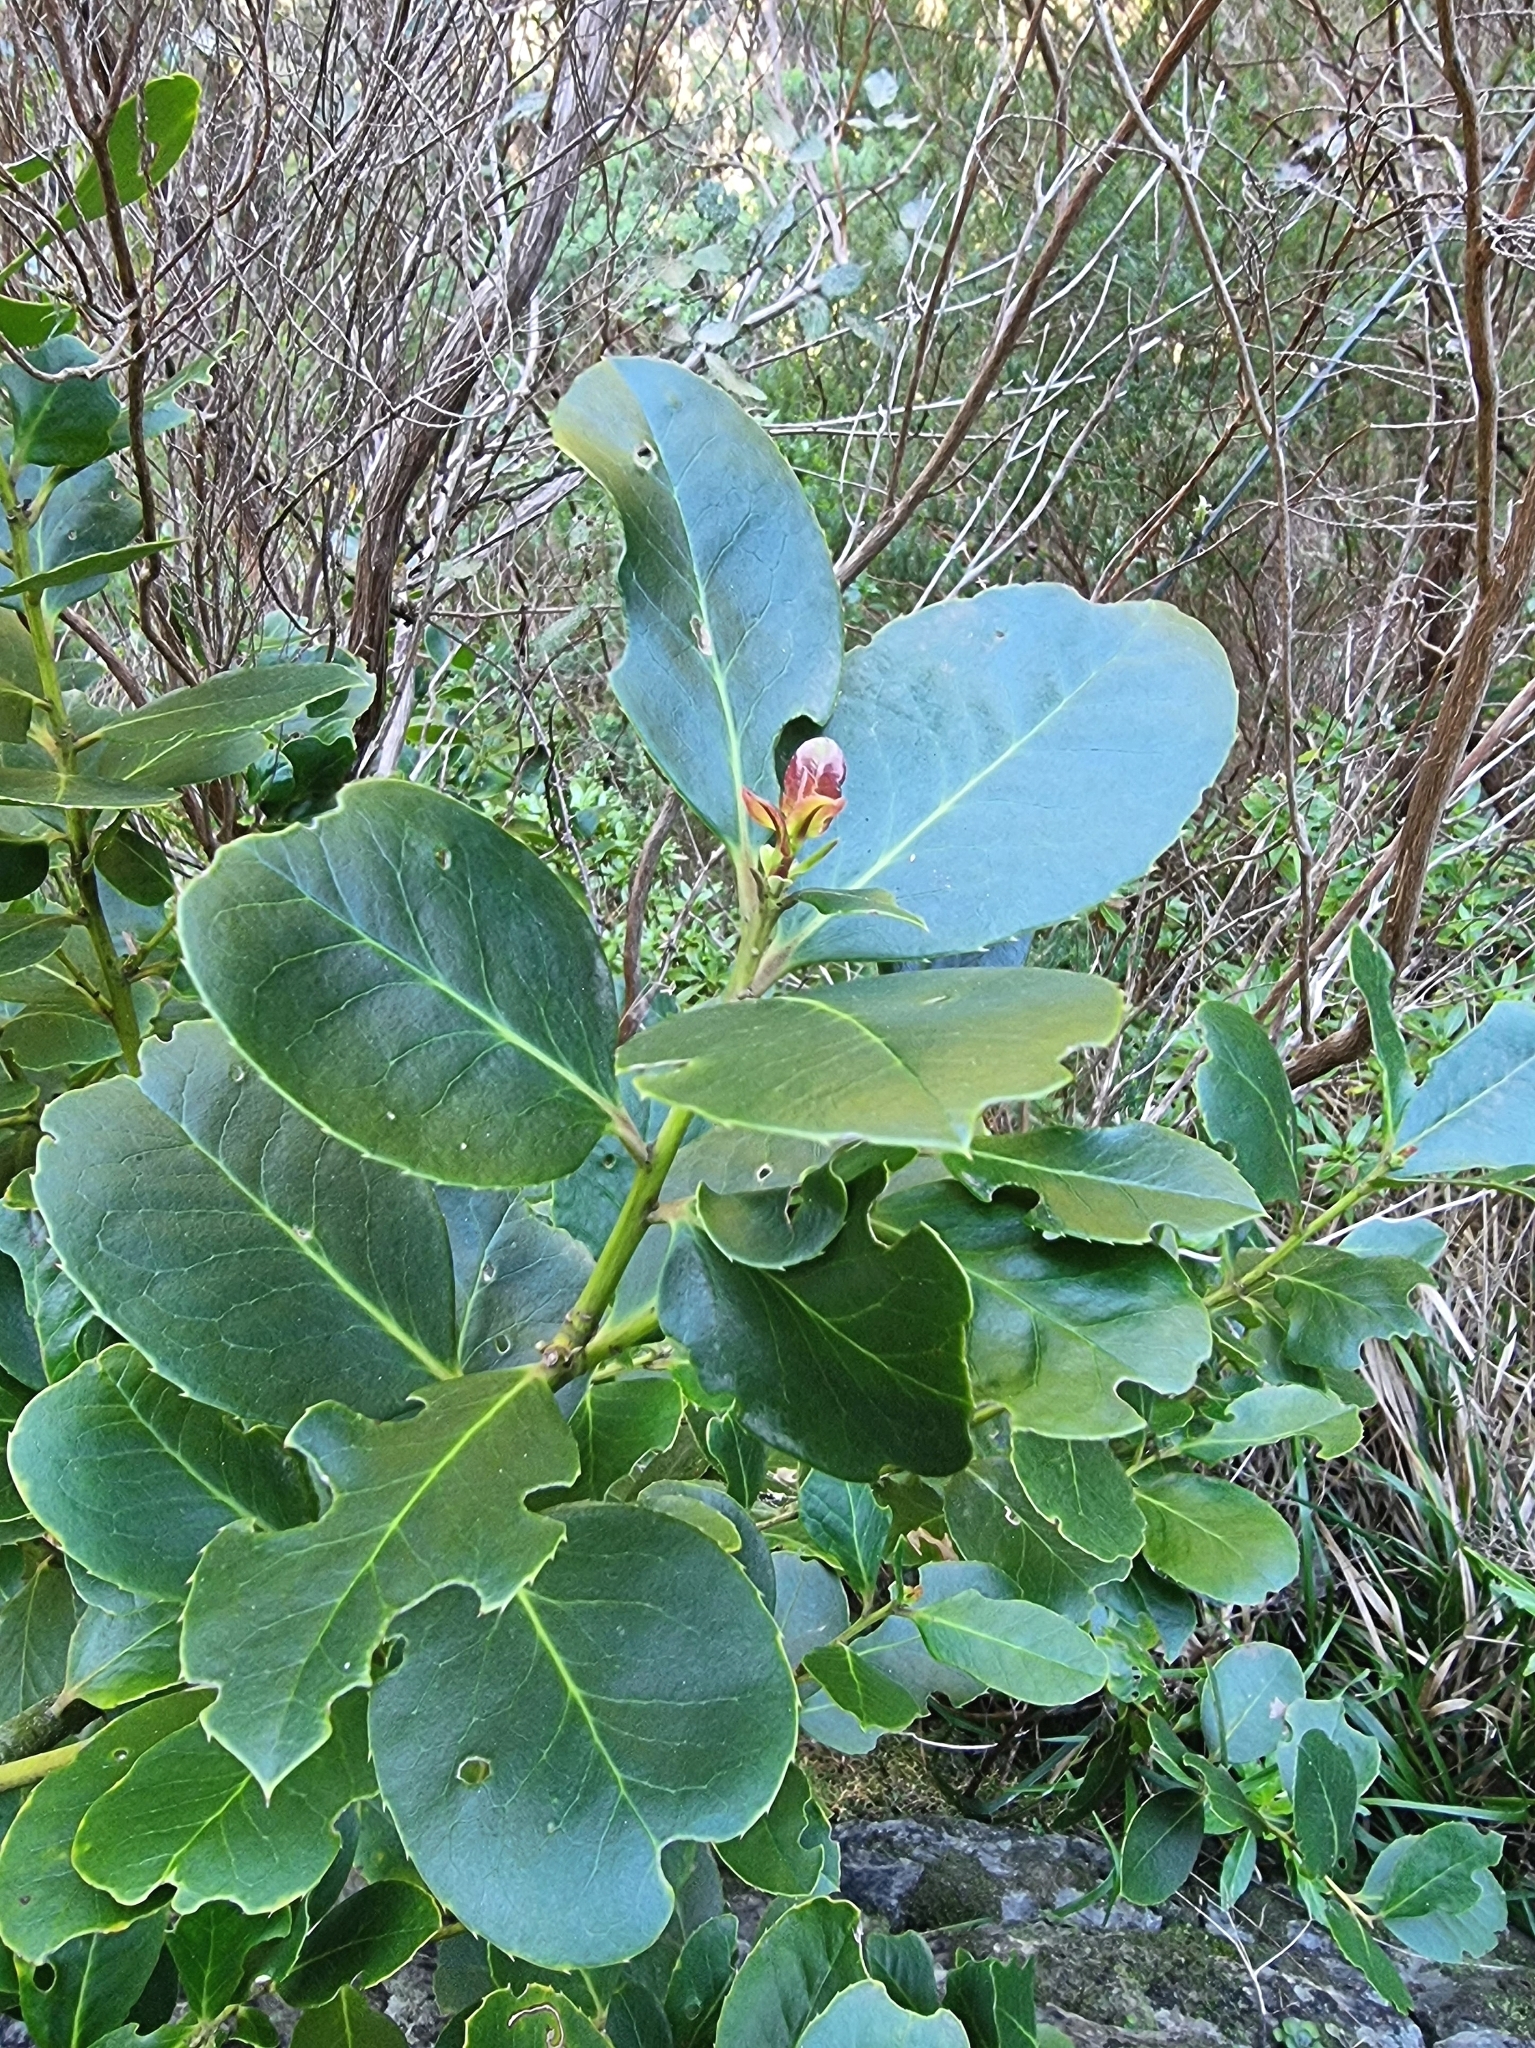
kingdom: Plantae
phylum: Tracheophyta
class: Magnoliopsida
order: Aquifoliales
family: Aquifoliaceae
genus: Ilex
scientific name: Ilex perado
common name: Madeira holly
